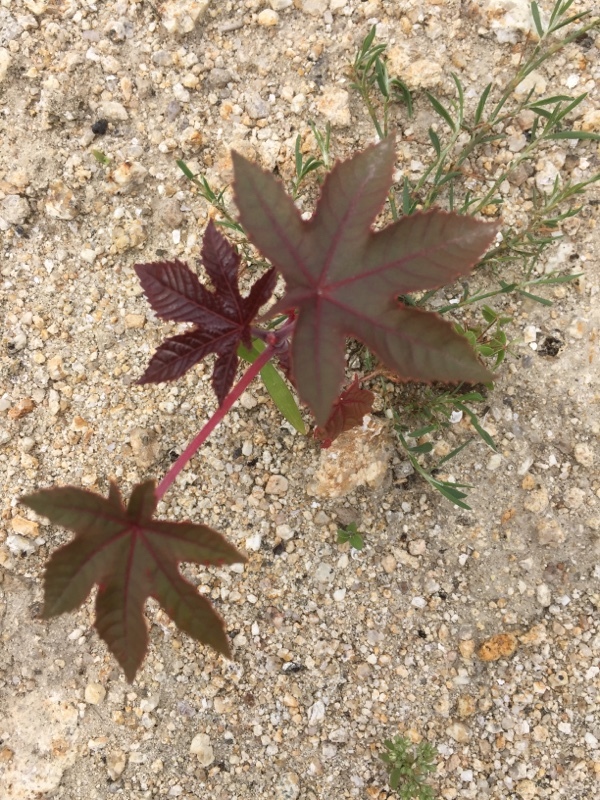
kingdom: Plantae
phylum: Tracheophyta
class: Magnoliopsida
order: Malpighiales
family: Euphorbiaceae
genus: Ricinus
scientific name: Ricinus communis
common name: Castor-oil-plant
